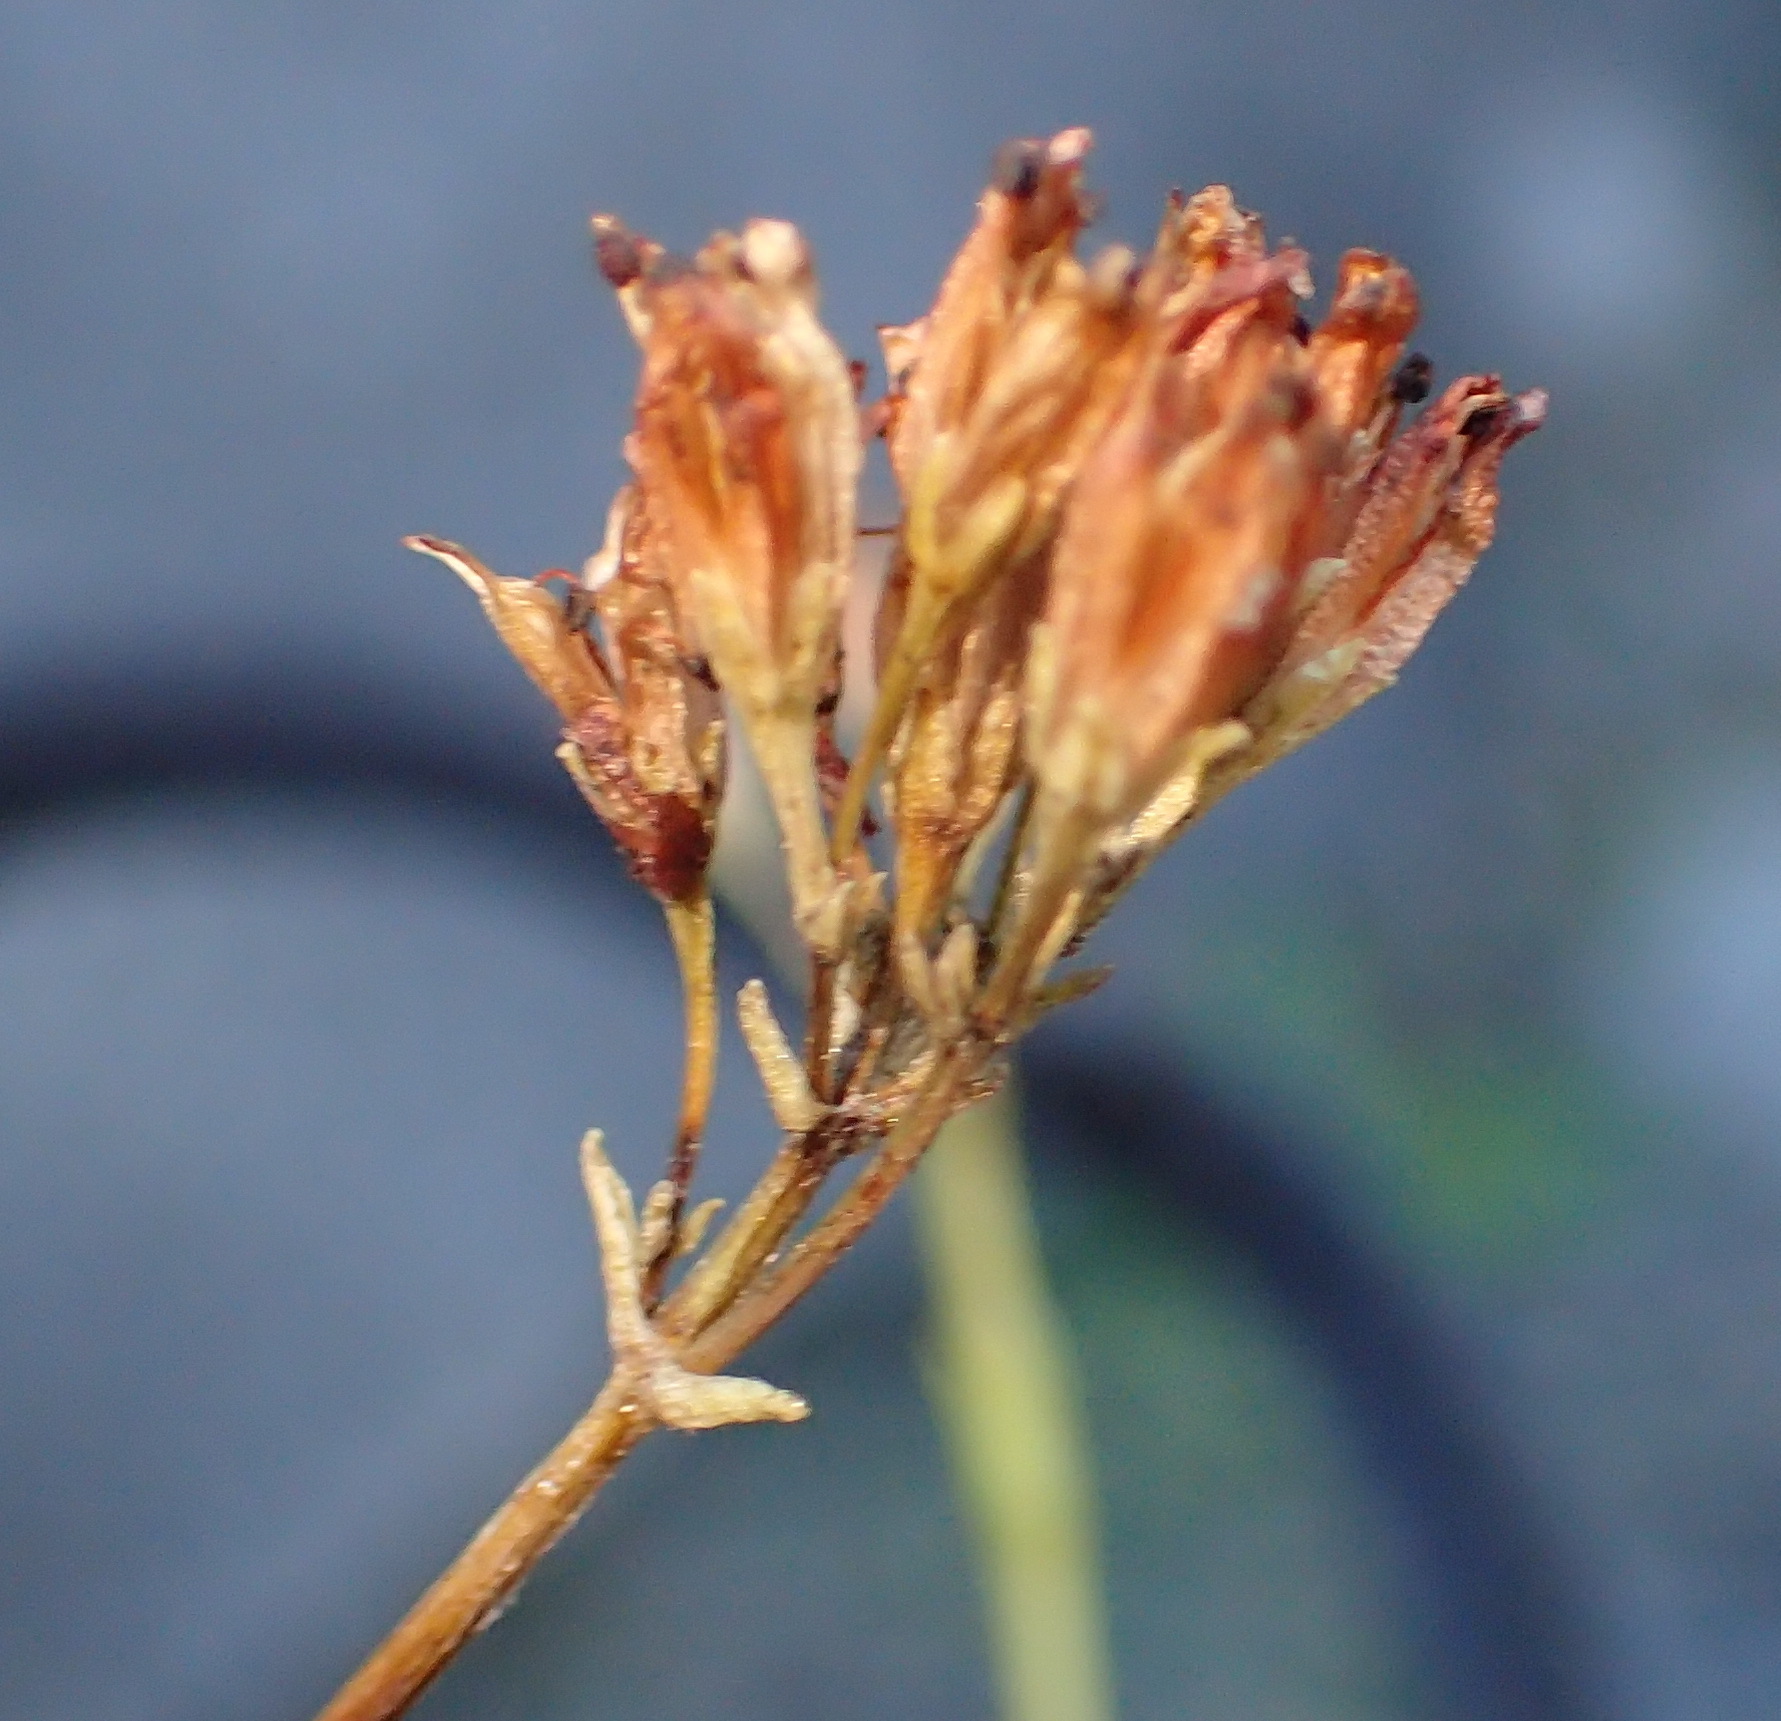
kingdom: Plantae
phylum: Tracheophyta
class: Magnoliopsida
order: Saxifragales
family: Crassulaceae
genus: Crassula
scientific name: Crassula biplanata
